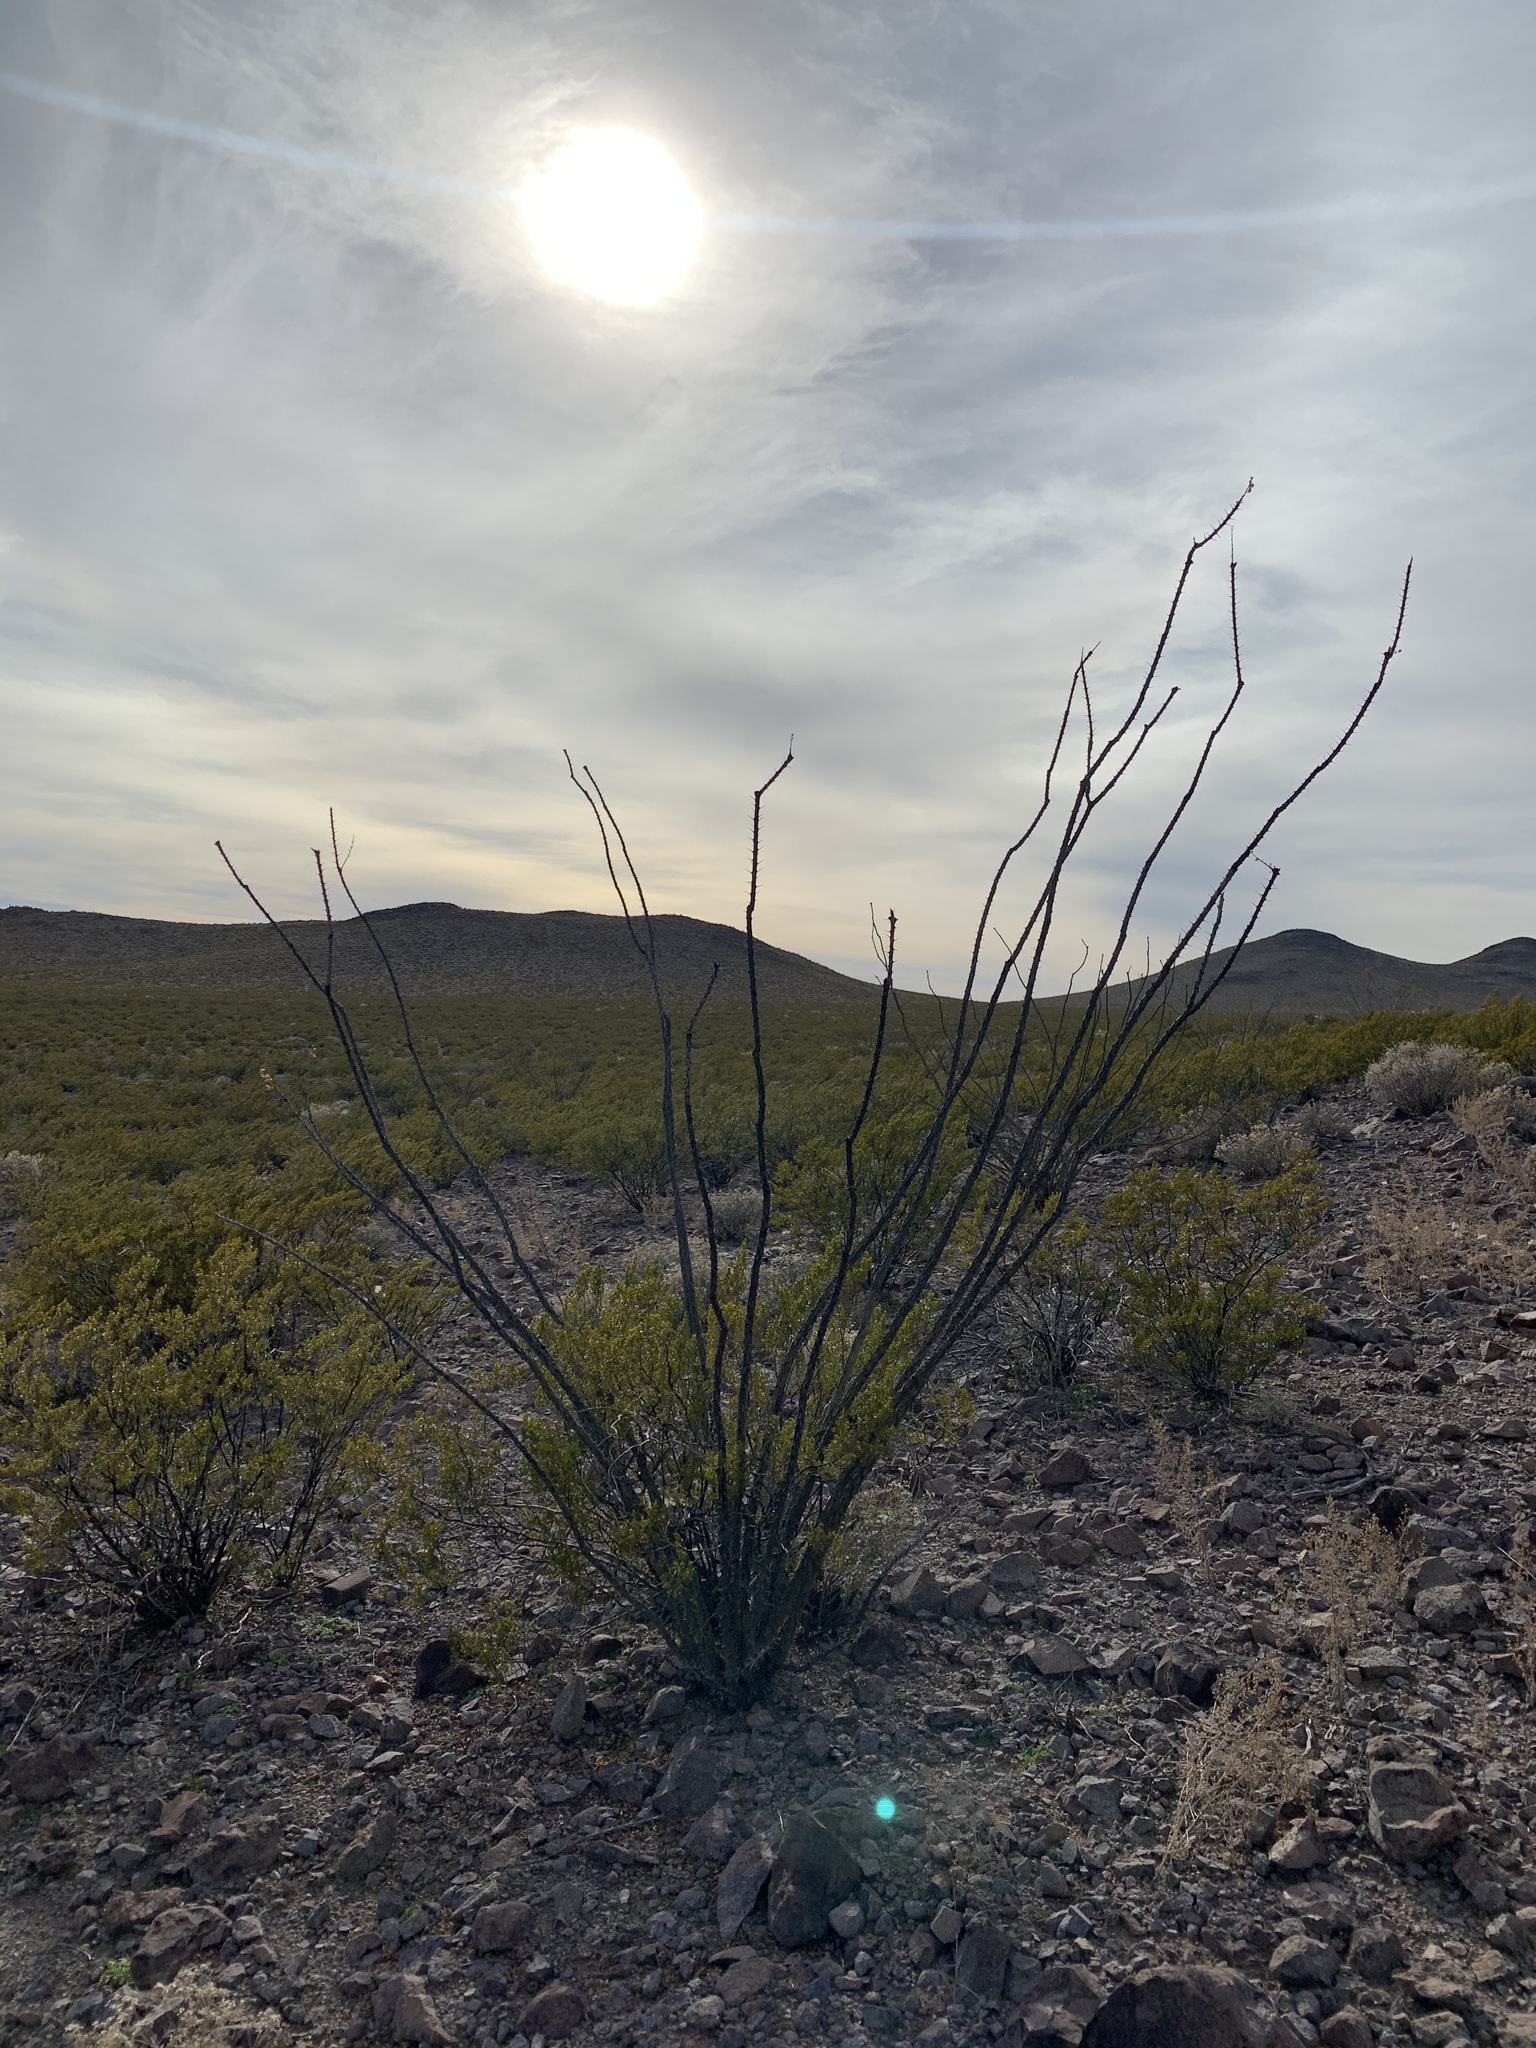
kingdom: Plantae
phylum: Tracheophyta
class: Magnoliopsida
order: Ericales
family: Fouquieriaceae
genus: Fouquieria
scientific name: Fouquieria splendens
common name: Vine-cactus
